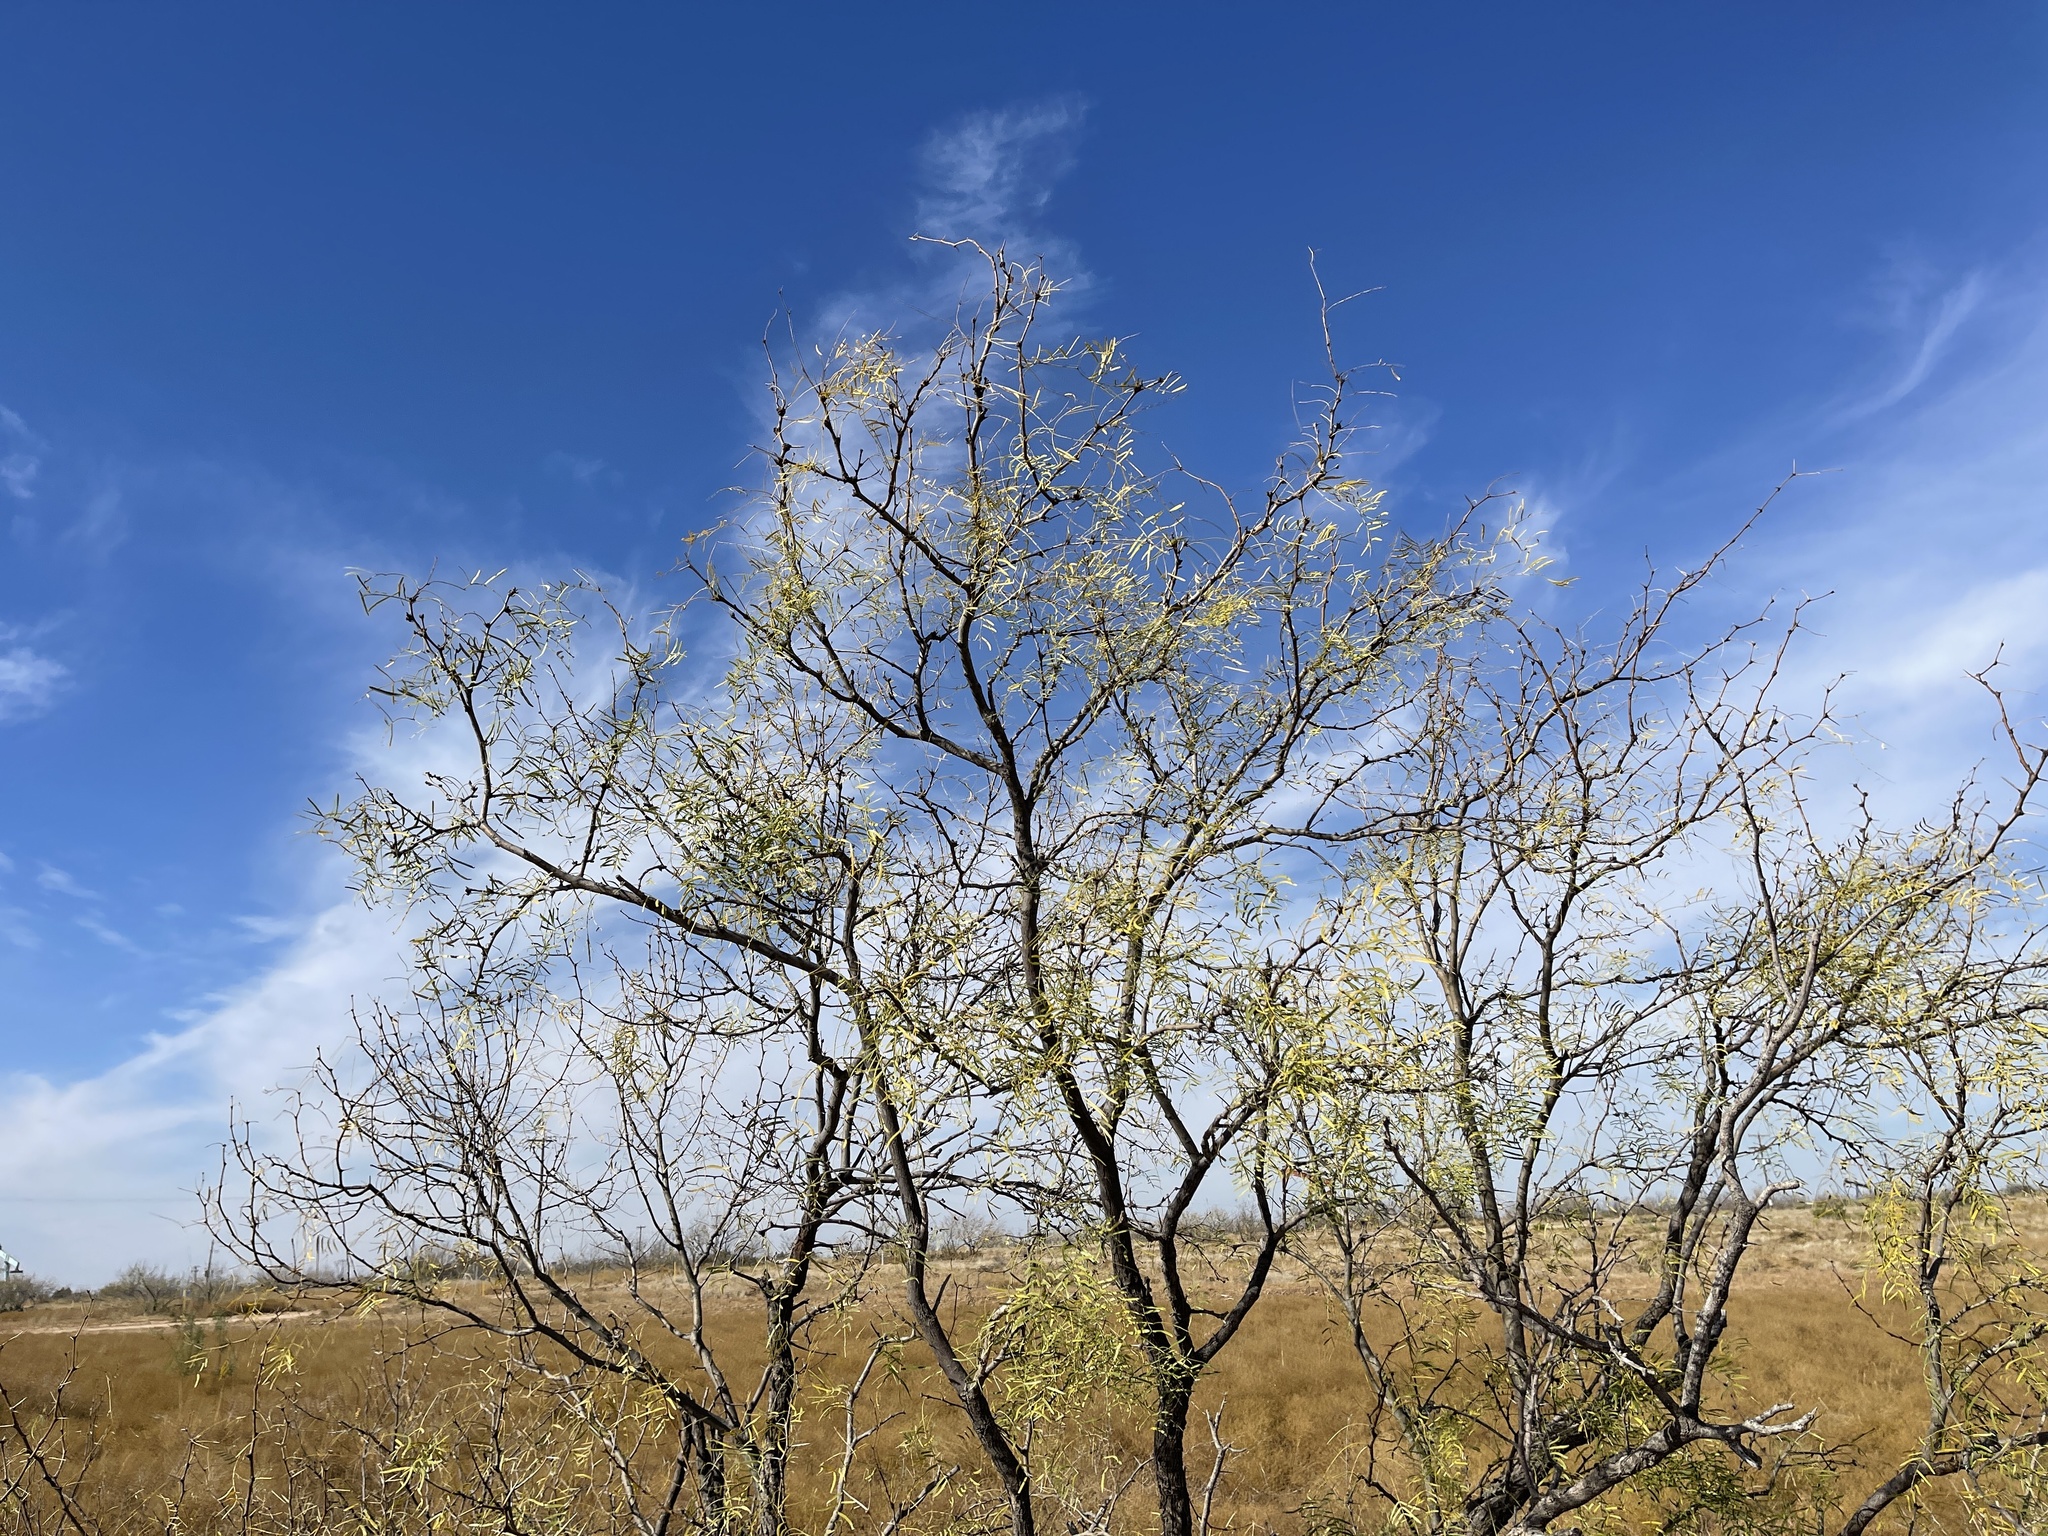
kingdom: Plantae
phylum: Tracheophyta
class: Magnoliopsida
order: Fabales
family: Fabaceae
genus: Prosopis
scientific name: Prosopis glandulosa
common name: Honey mesquite
